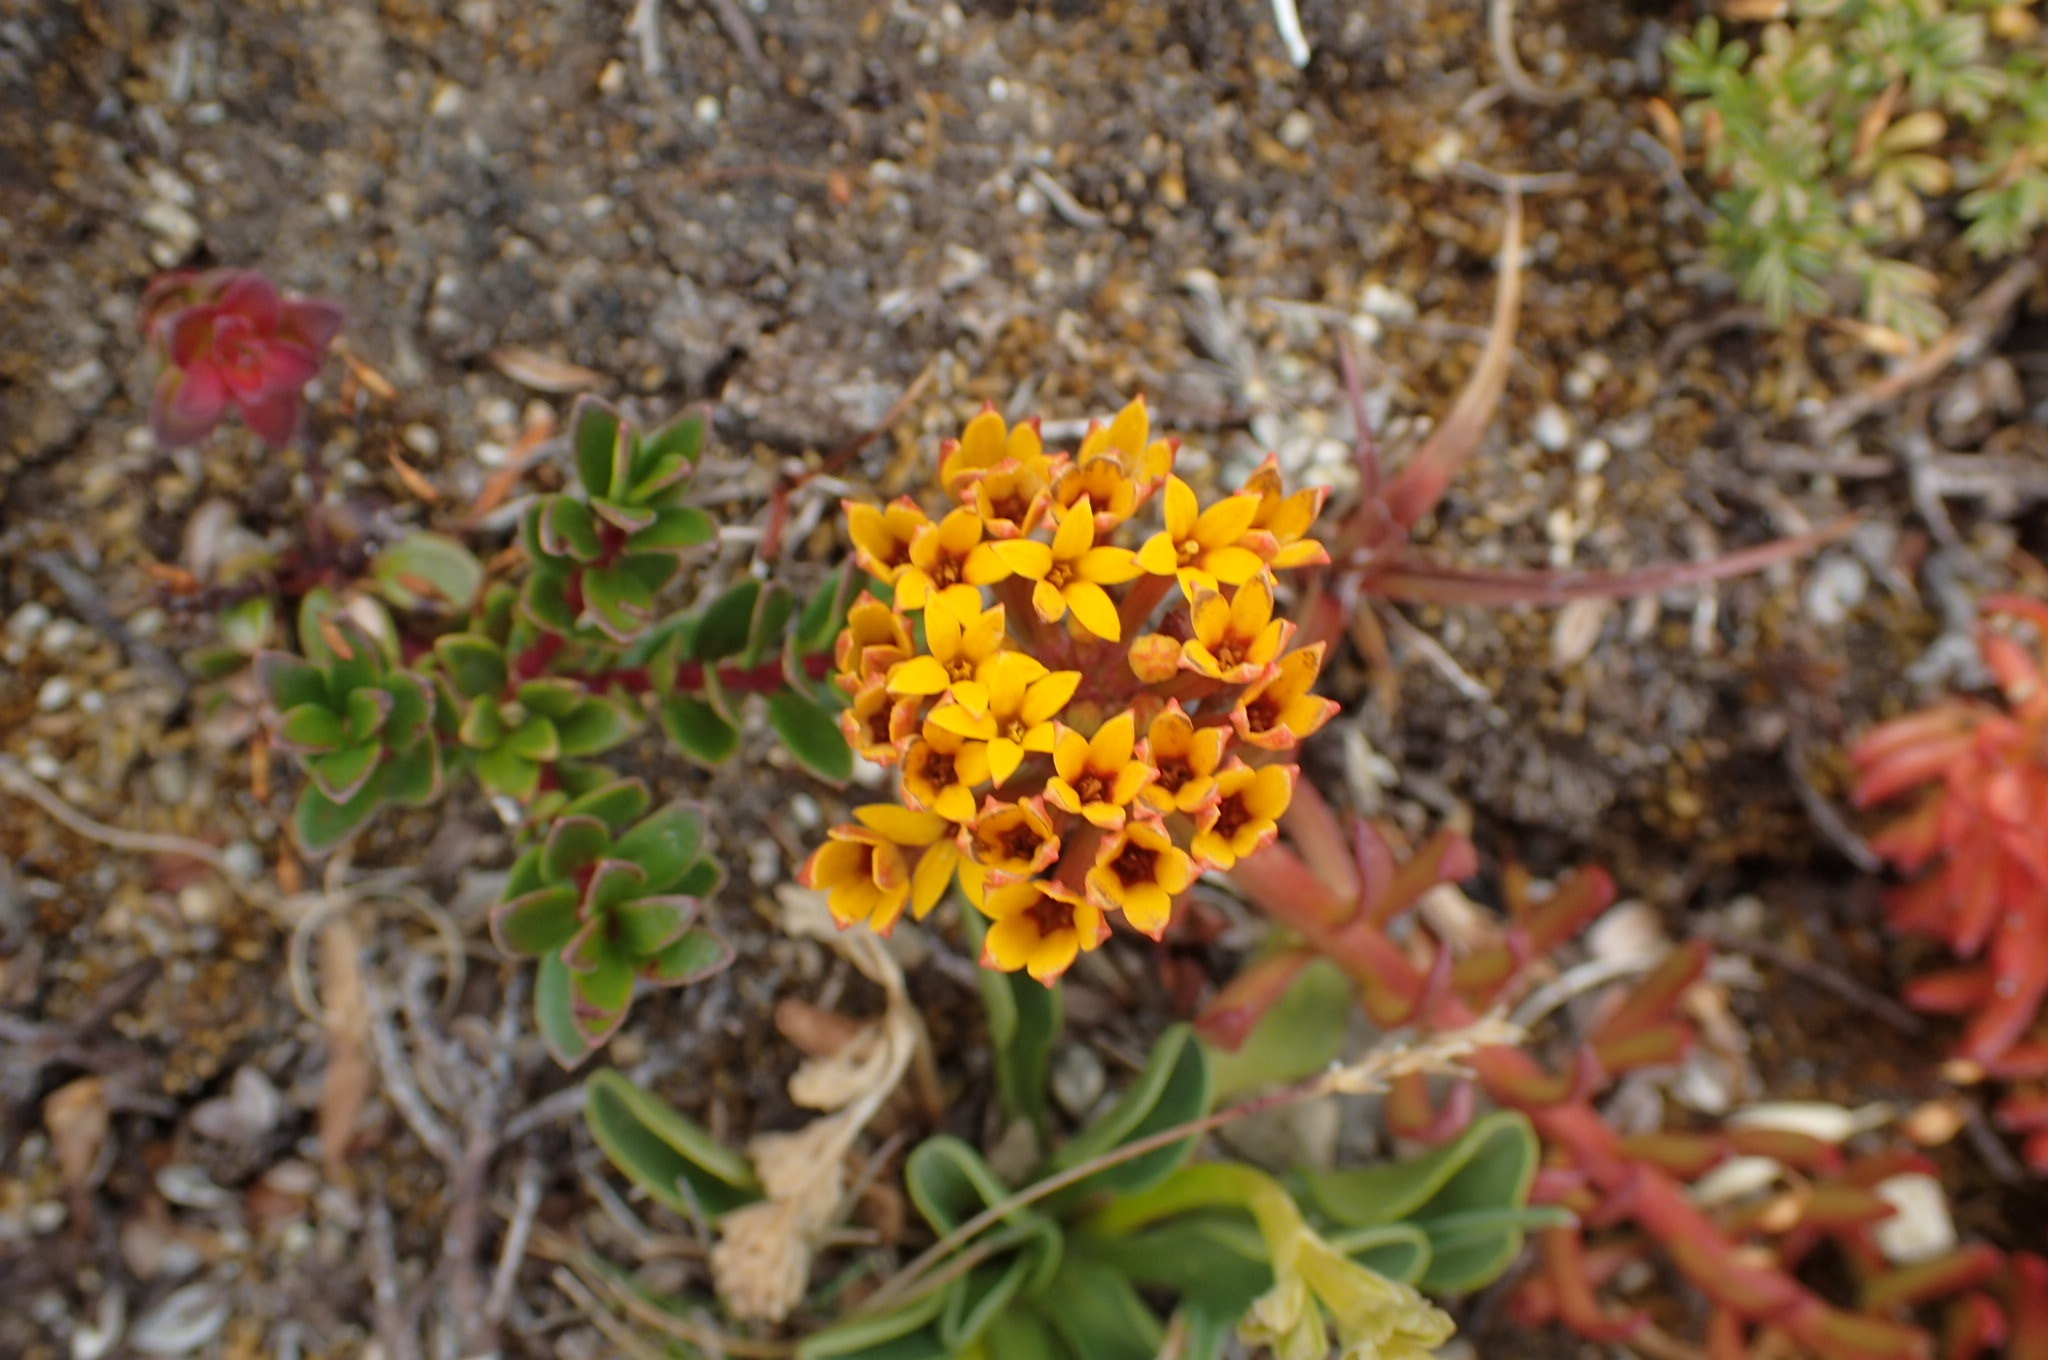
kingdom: Plantae
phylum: Tracheophyta
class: Magnoliopsida
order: Santalales
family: Schoepfiaceae
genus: Quinchamalium
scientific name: Quinchamalium chilense
